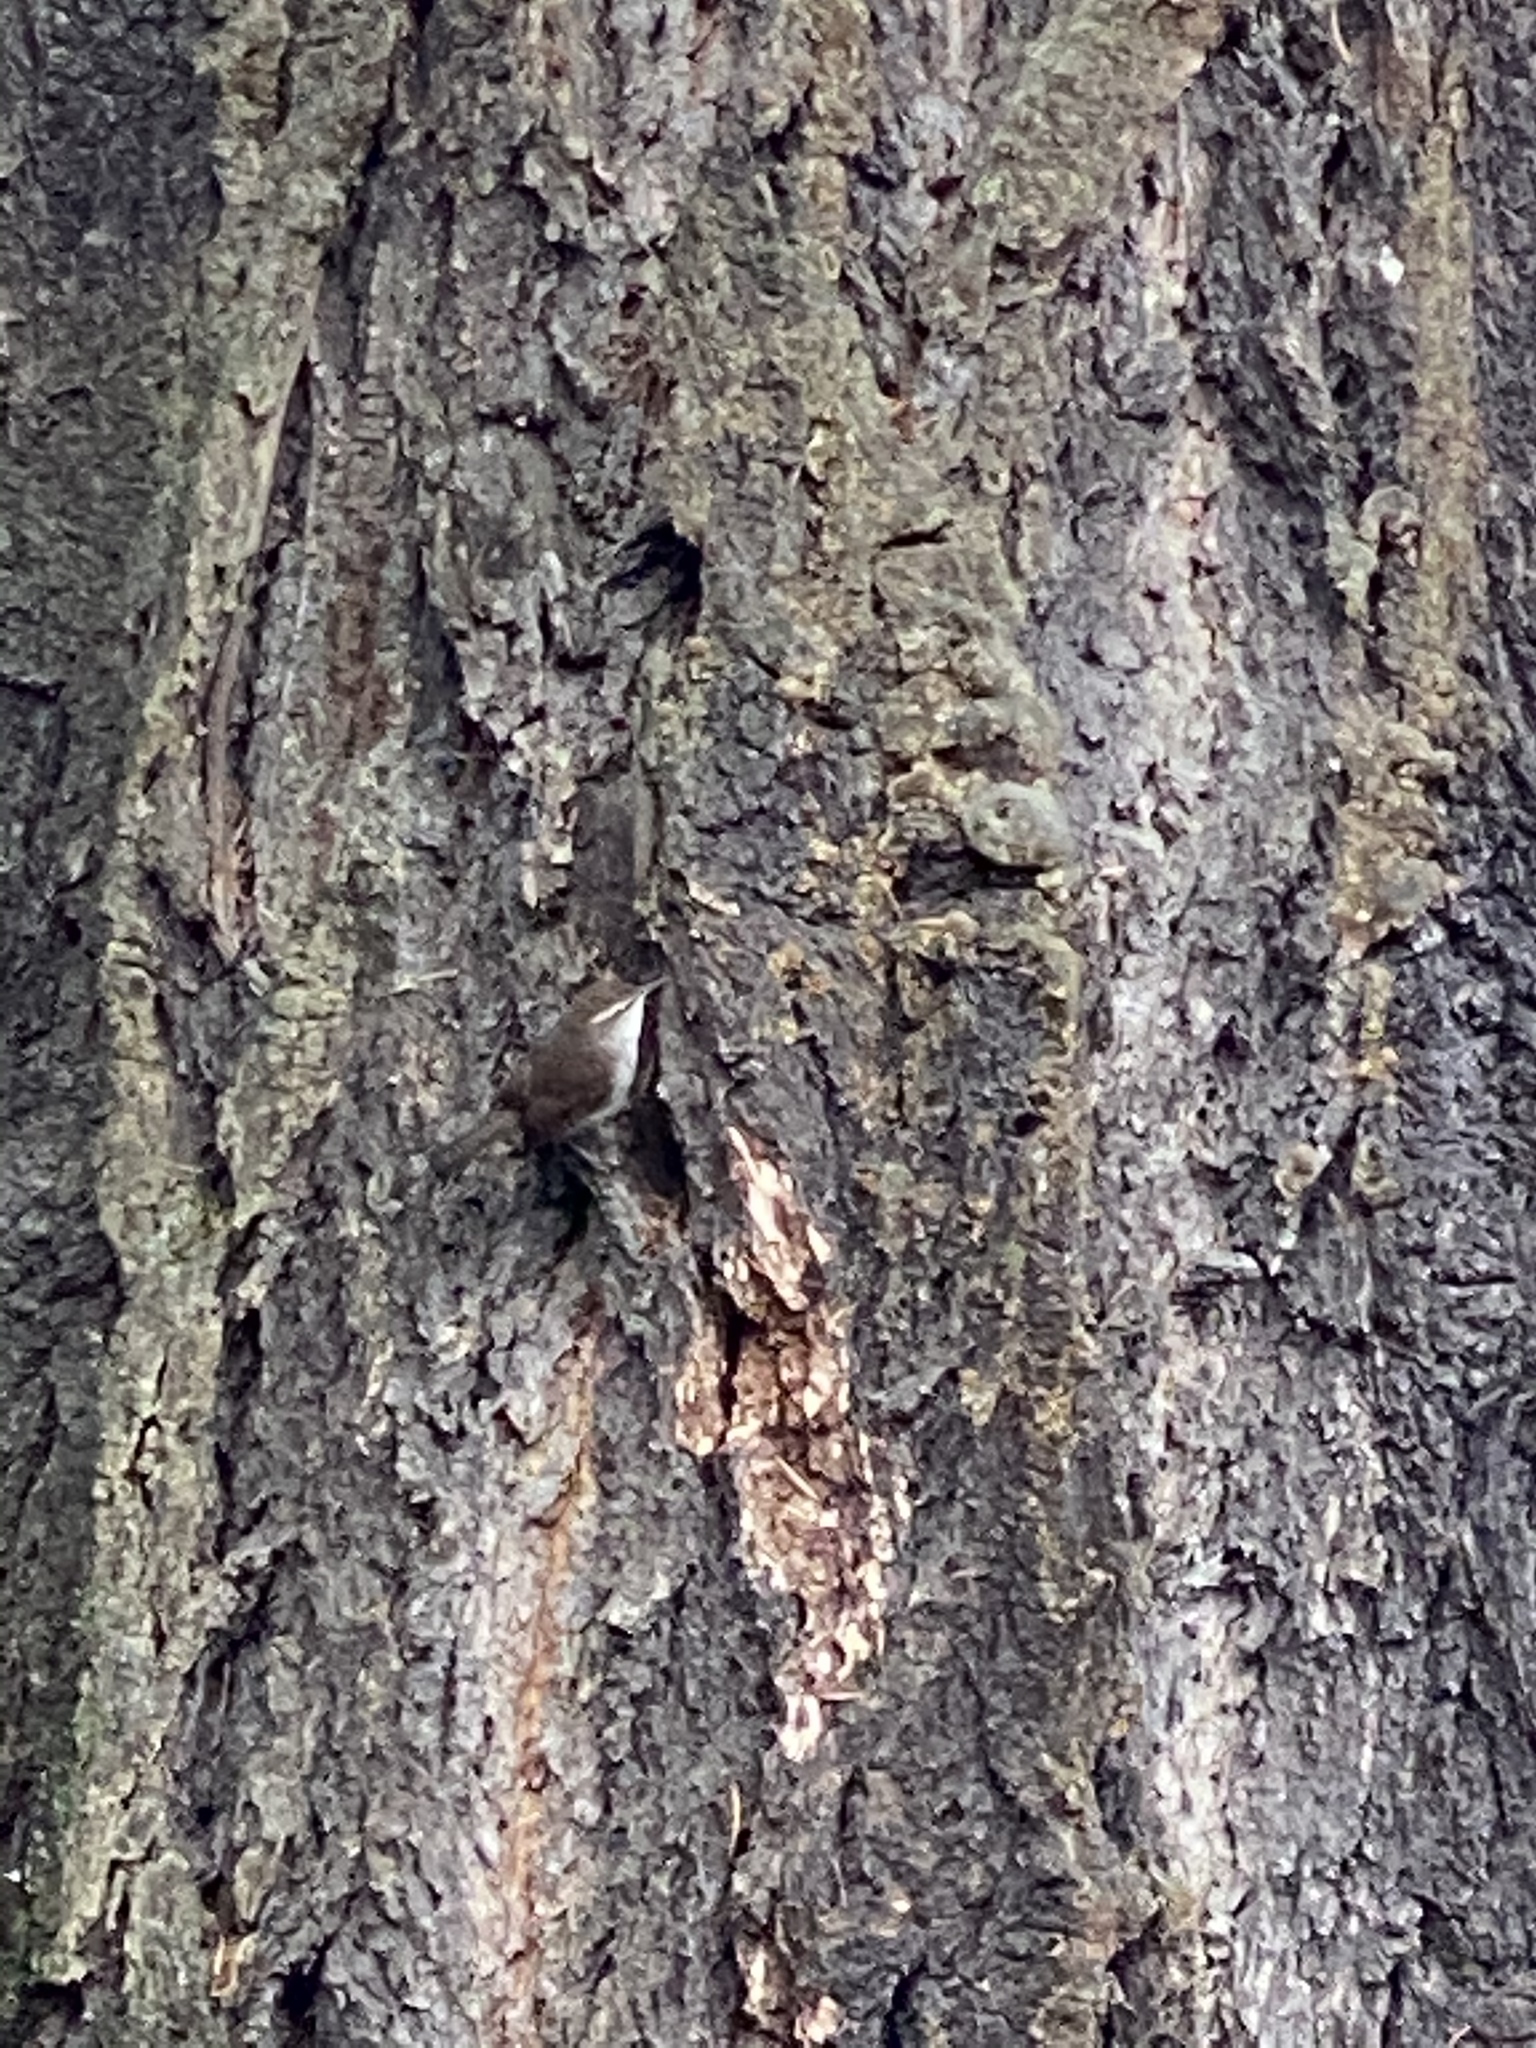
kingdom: Animalia
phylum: Chordata
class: Aves
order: Passeriformes
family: Troglodytidae
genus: Thryomanes
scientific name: Thryomanes bewickii
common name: Bewick's wren
